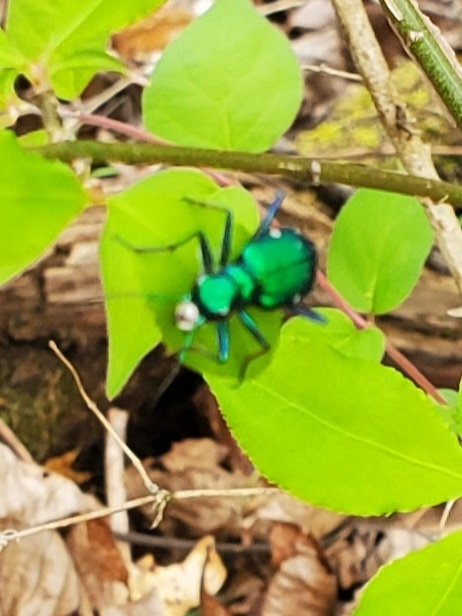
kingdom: Animalia
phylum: Arthropoda
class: Insecta
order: Coleoptera
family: Carabidae
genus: Cicindela
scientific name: Cicindela sexguttata
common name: Six-spotted tiger beetle
